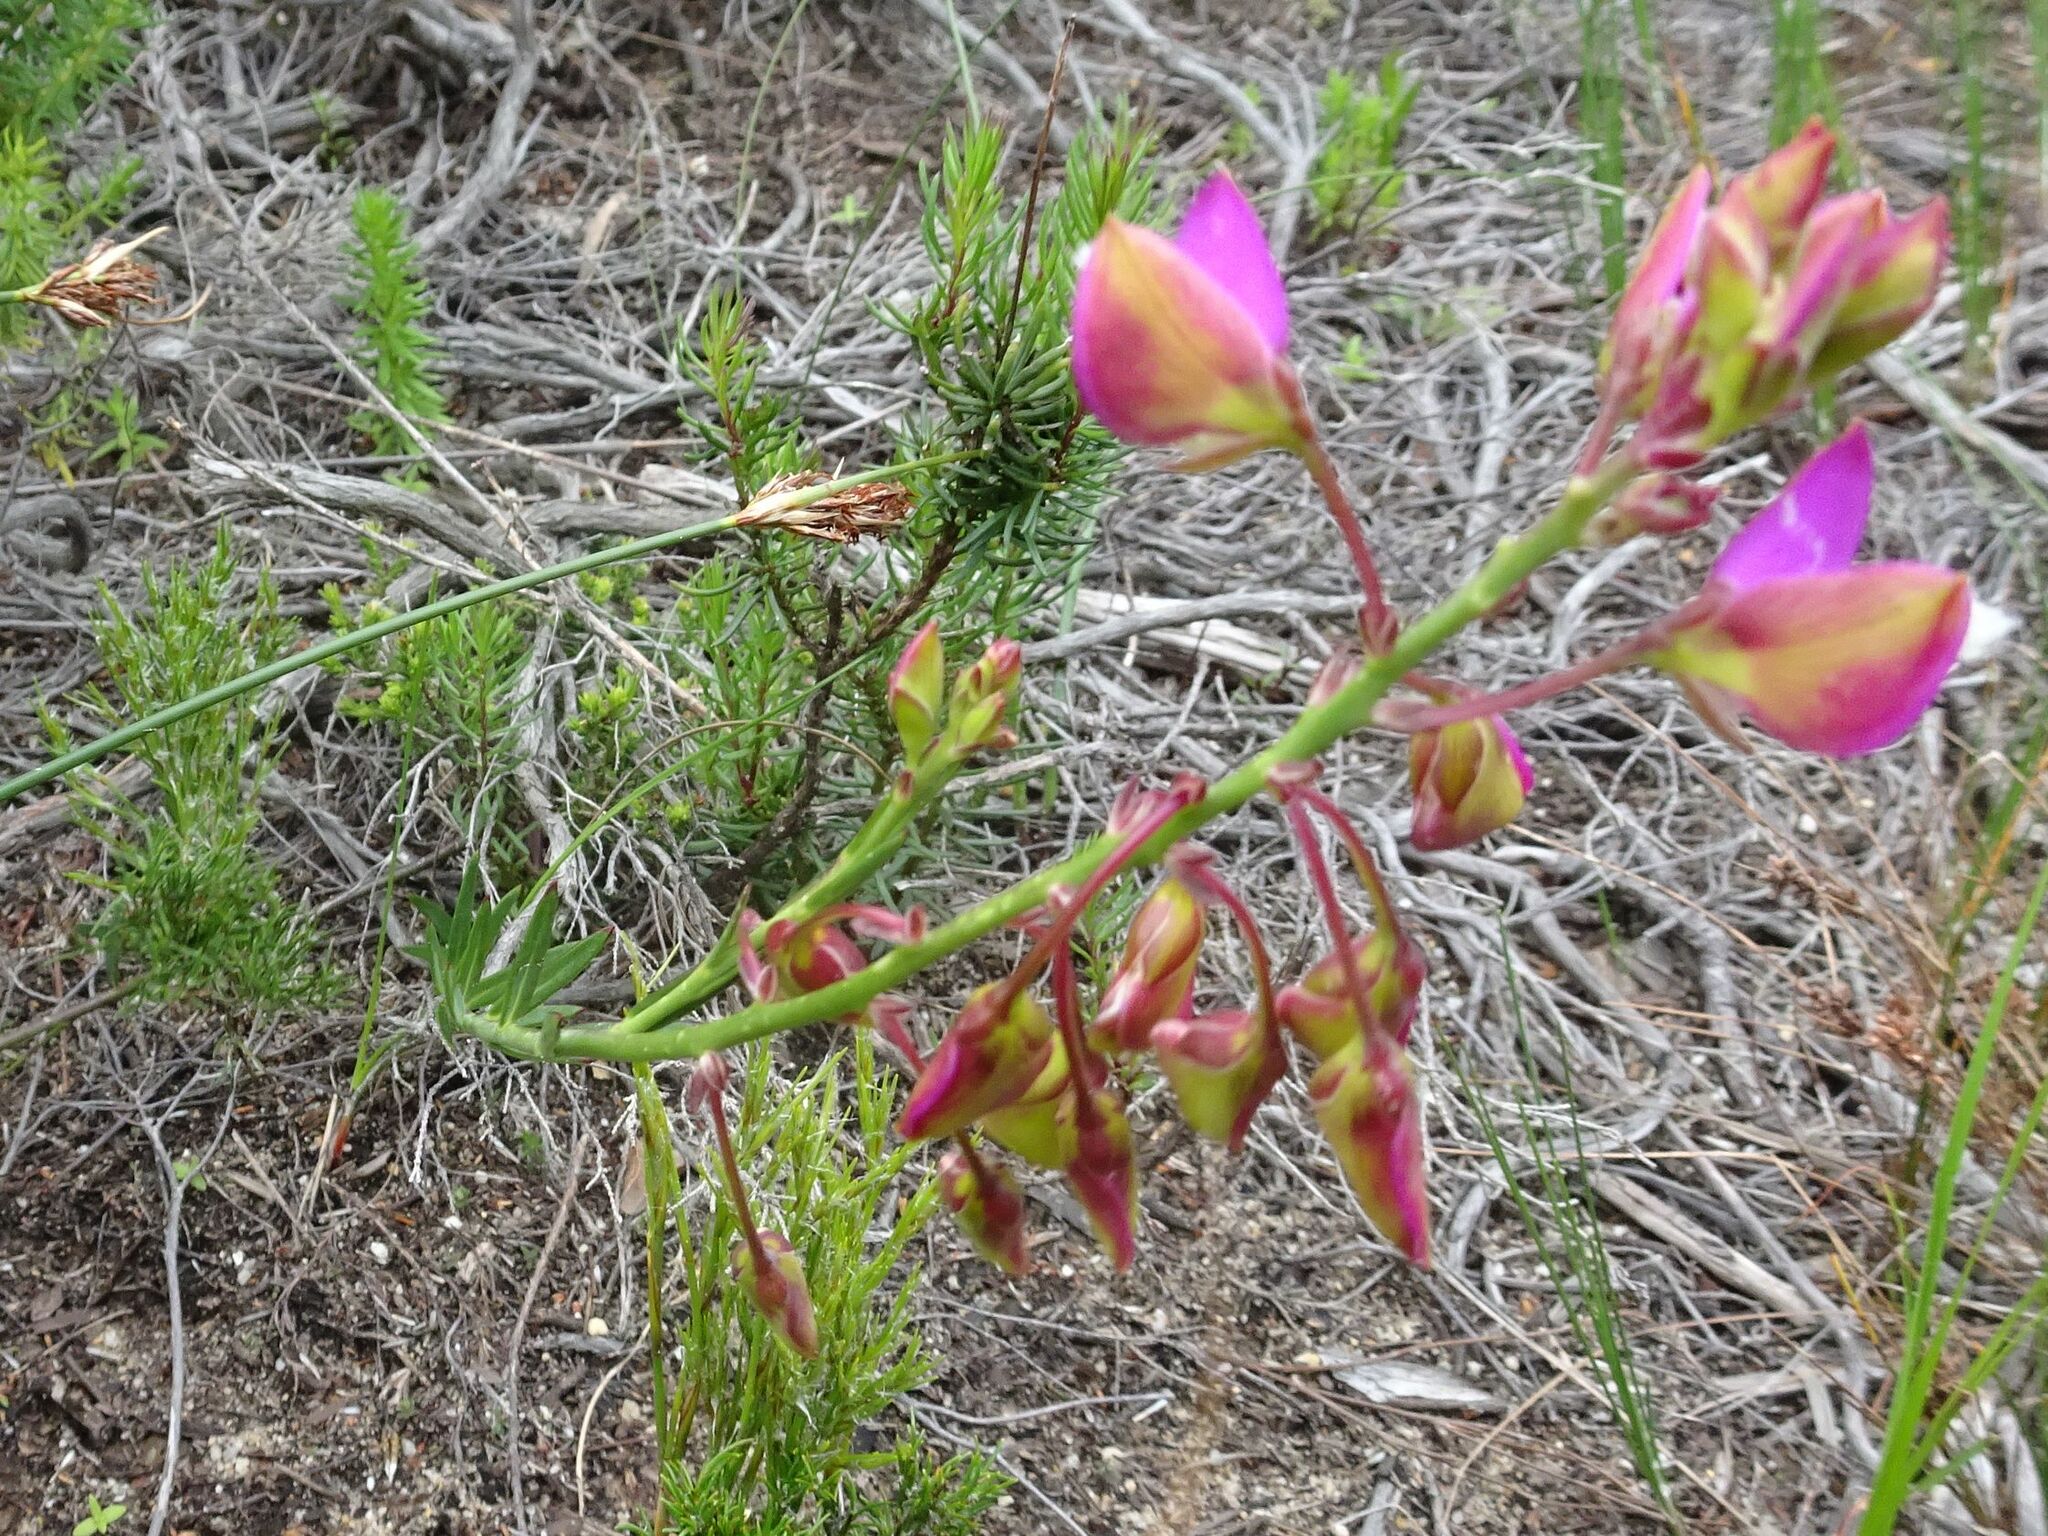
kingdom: Plantae
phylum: Tracheophyta
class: Magnoliopsida
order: Fabales
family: Polygalaceae
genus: Polygala
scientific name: Polygala bracteolata
